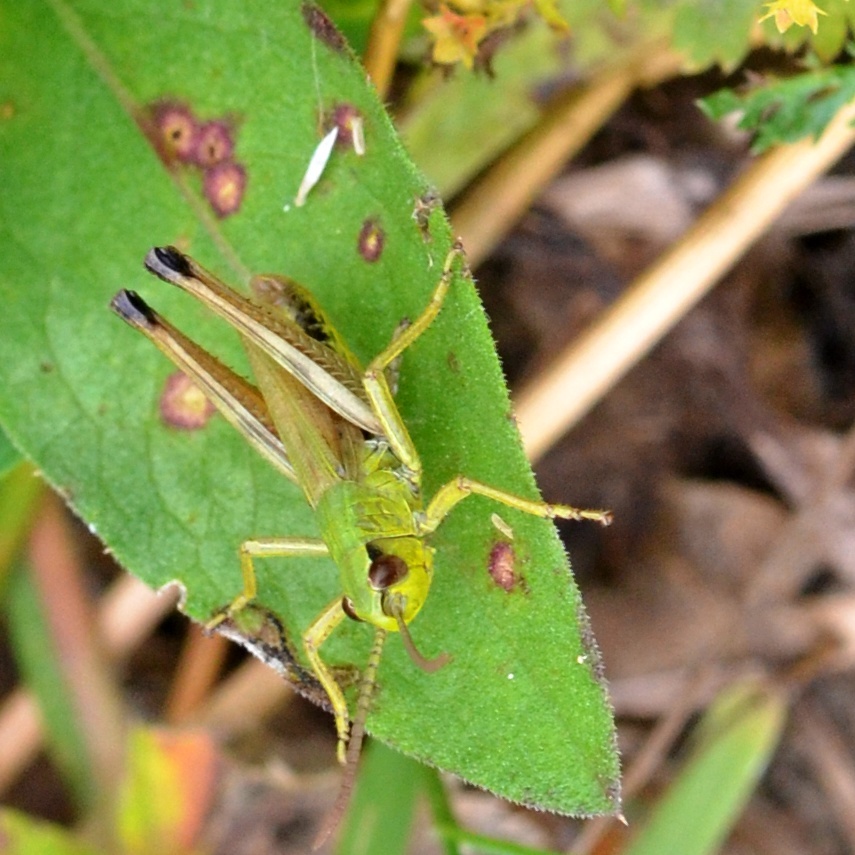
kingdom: Animalia
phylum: Arthropoda
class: Insecta
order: Orthoptera
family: Acrididae
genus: Pseudochorthippus
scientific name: Pseudochorthippus parallelus
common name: Meadow grasshopper
